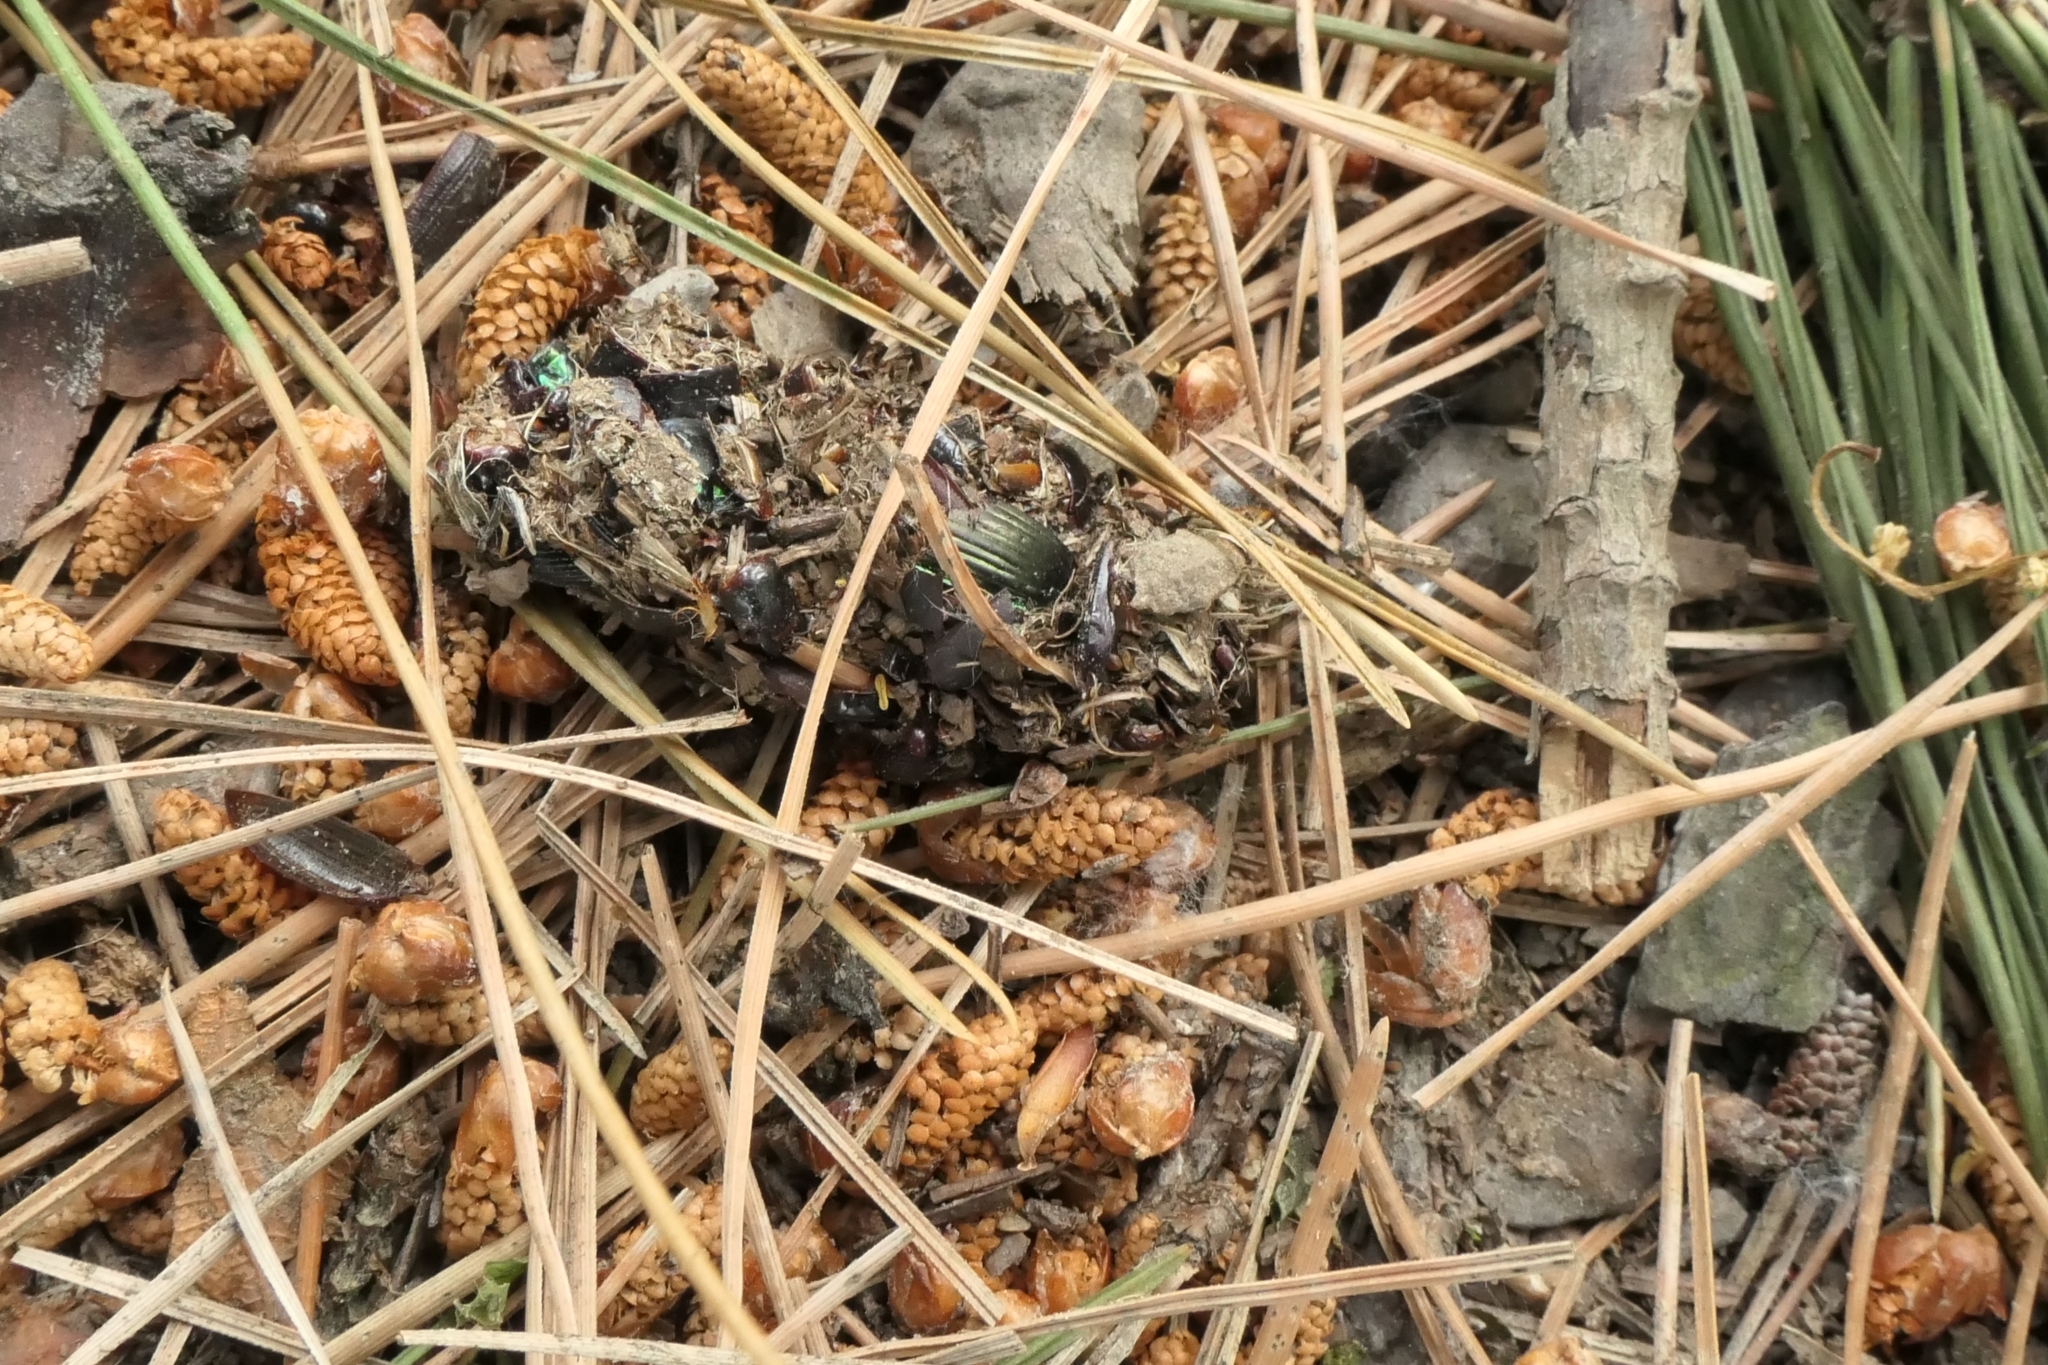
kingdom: Animalia
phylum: Chordata
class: Aves
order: Strigiformes
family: Strigidae
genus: Athene
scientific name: Athene noctua
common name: Little owl
